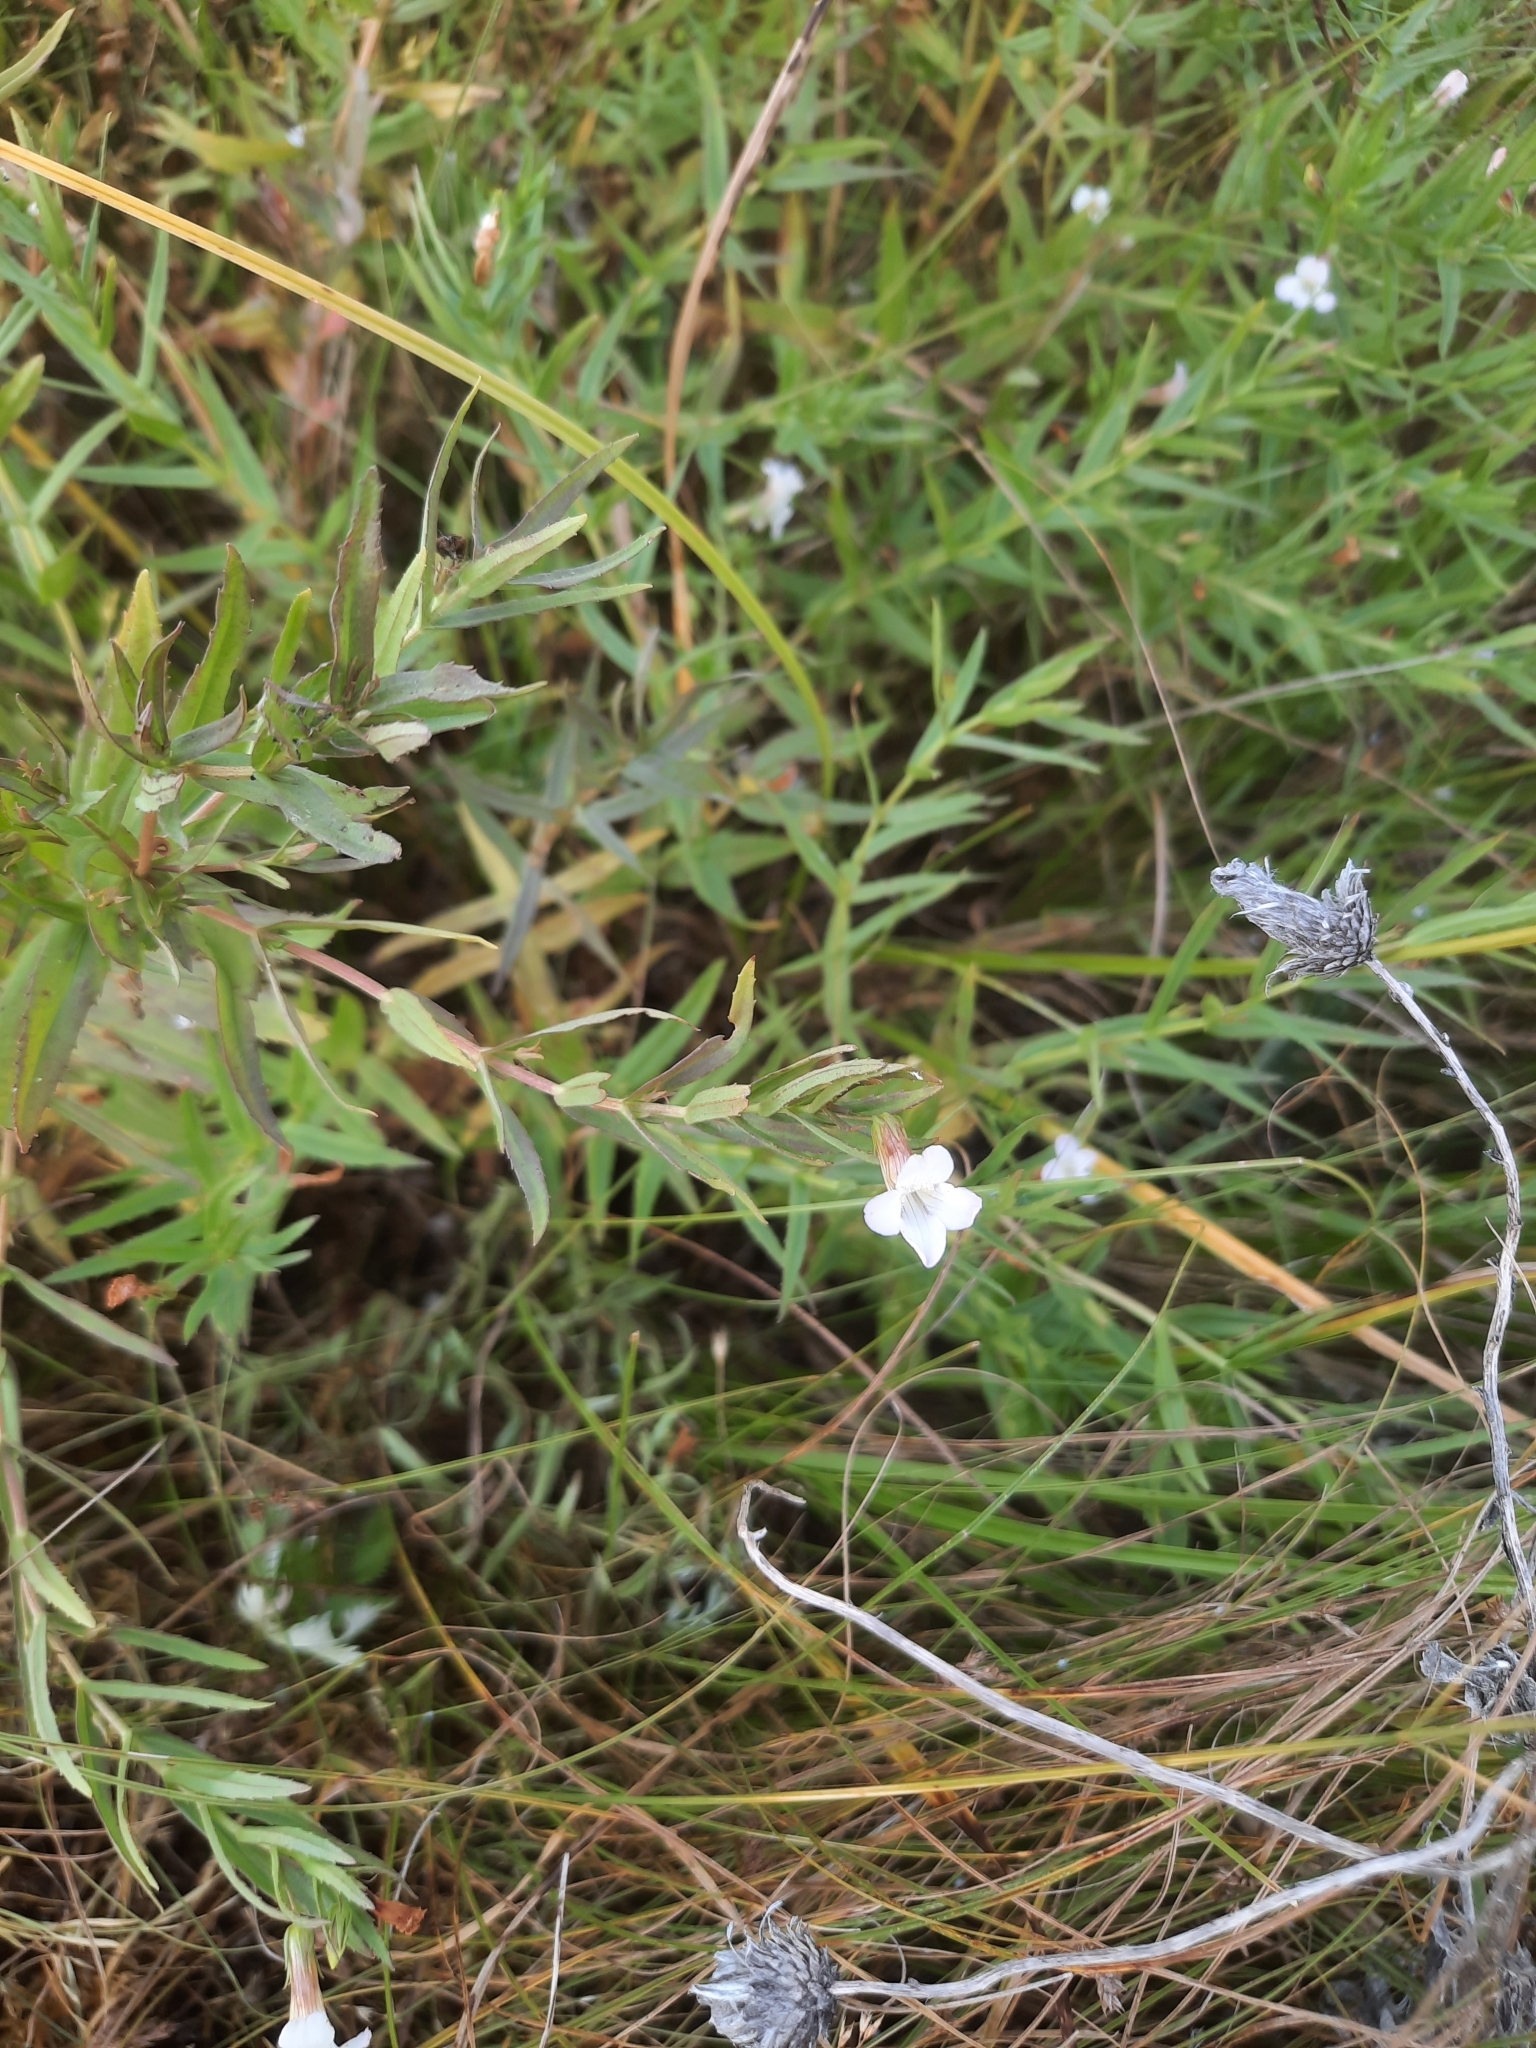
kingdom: Plantae
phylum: Tracheophyta
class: Magnoliopsida
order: Lamiales
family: Plantaginaceae
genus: Gratiola
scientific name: Gratiola officinalis
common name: Gratiola
